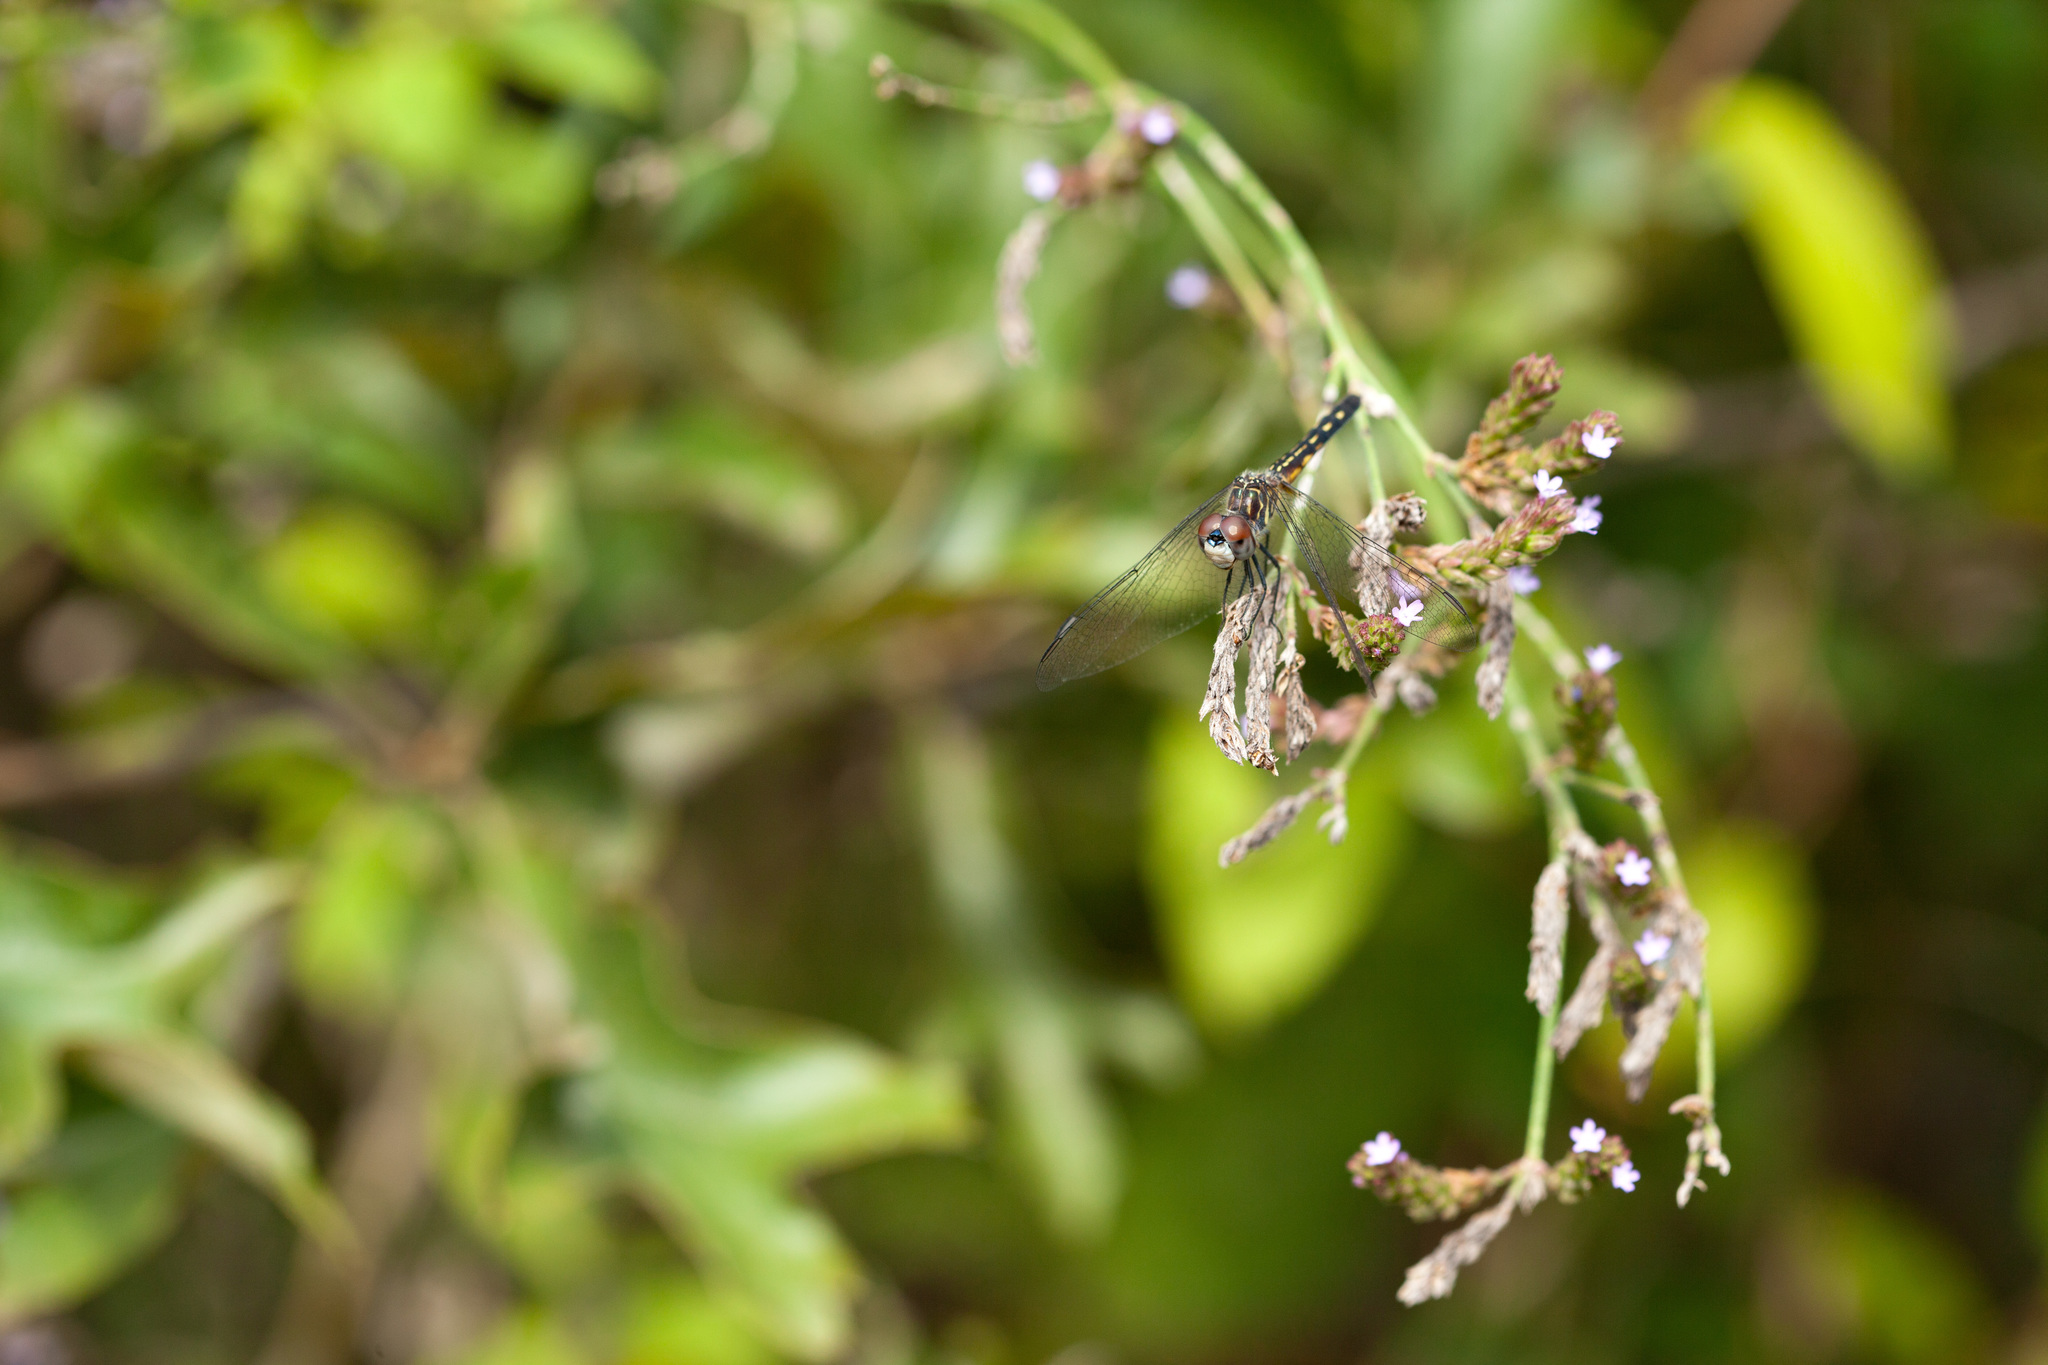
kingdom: Animalia
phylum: Arthropoda
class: Insecta
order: Odonata
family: Libellulidae
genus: Pachydiplax
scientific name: Pachydiplax longipennis
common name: Blue dasher
